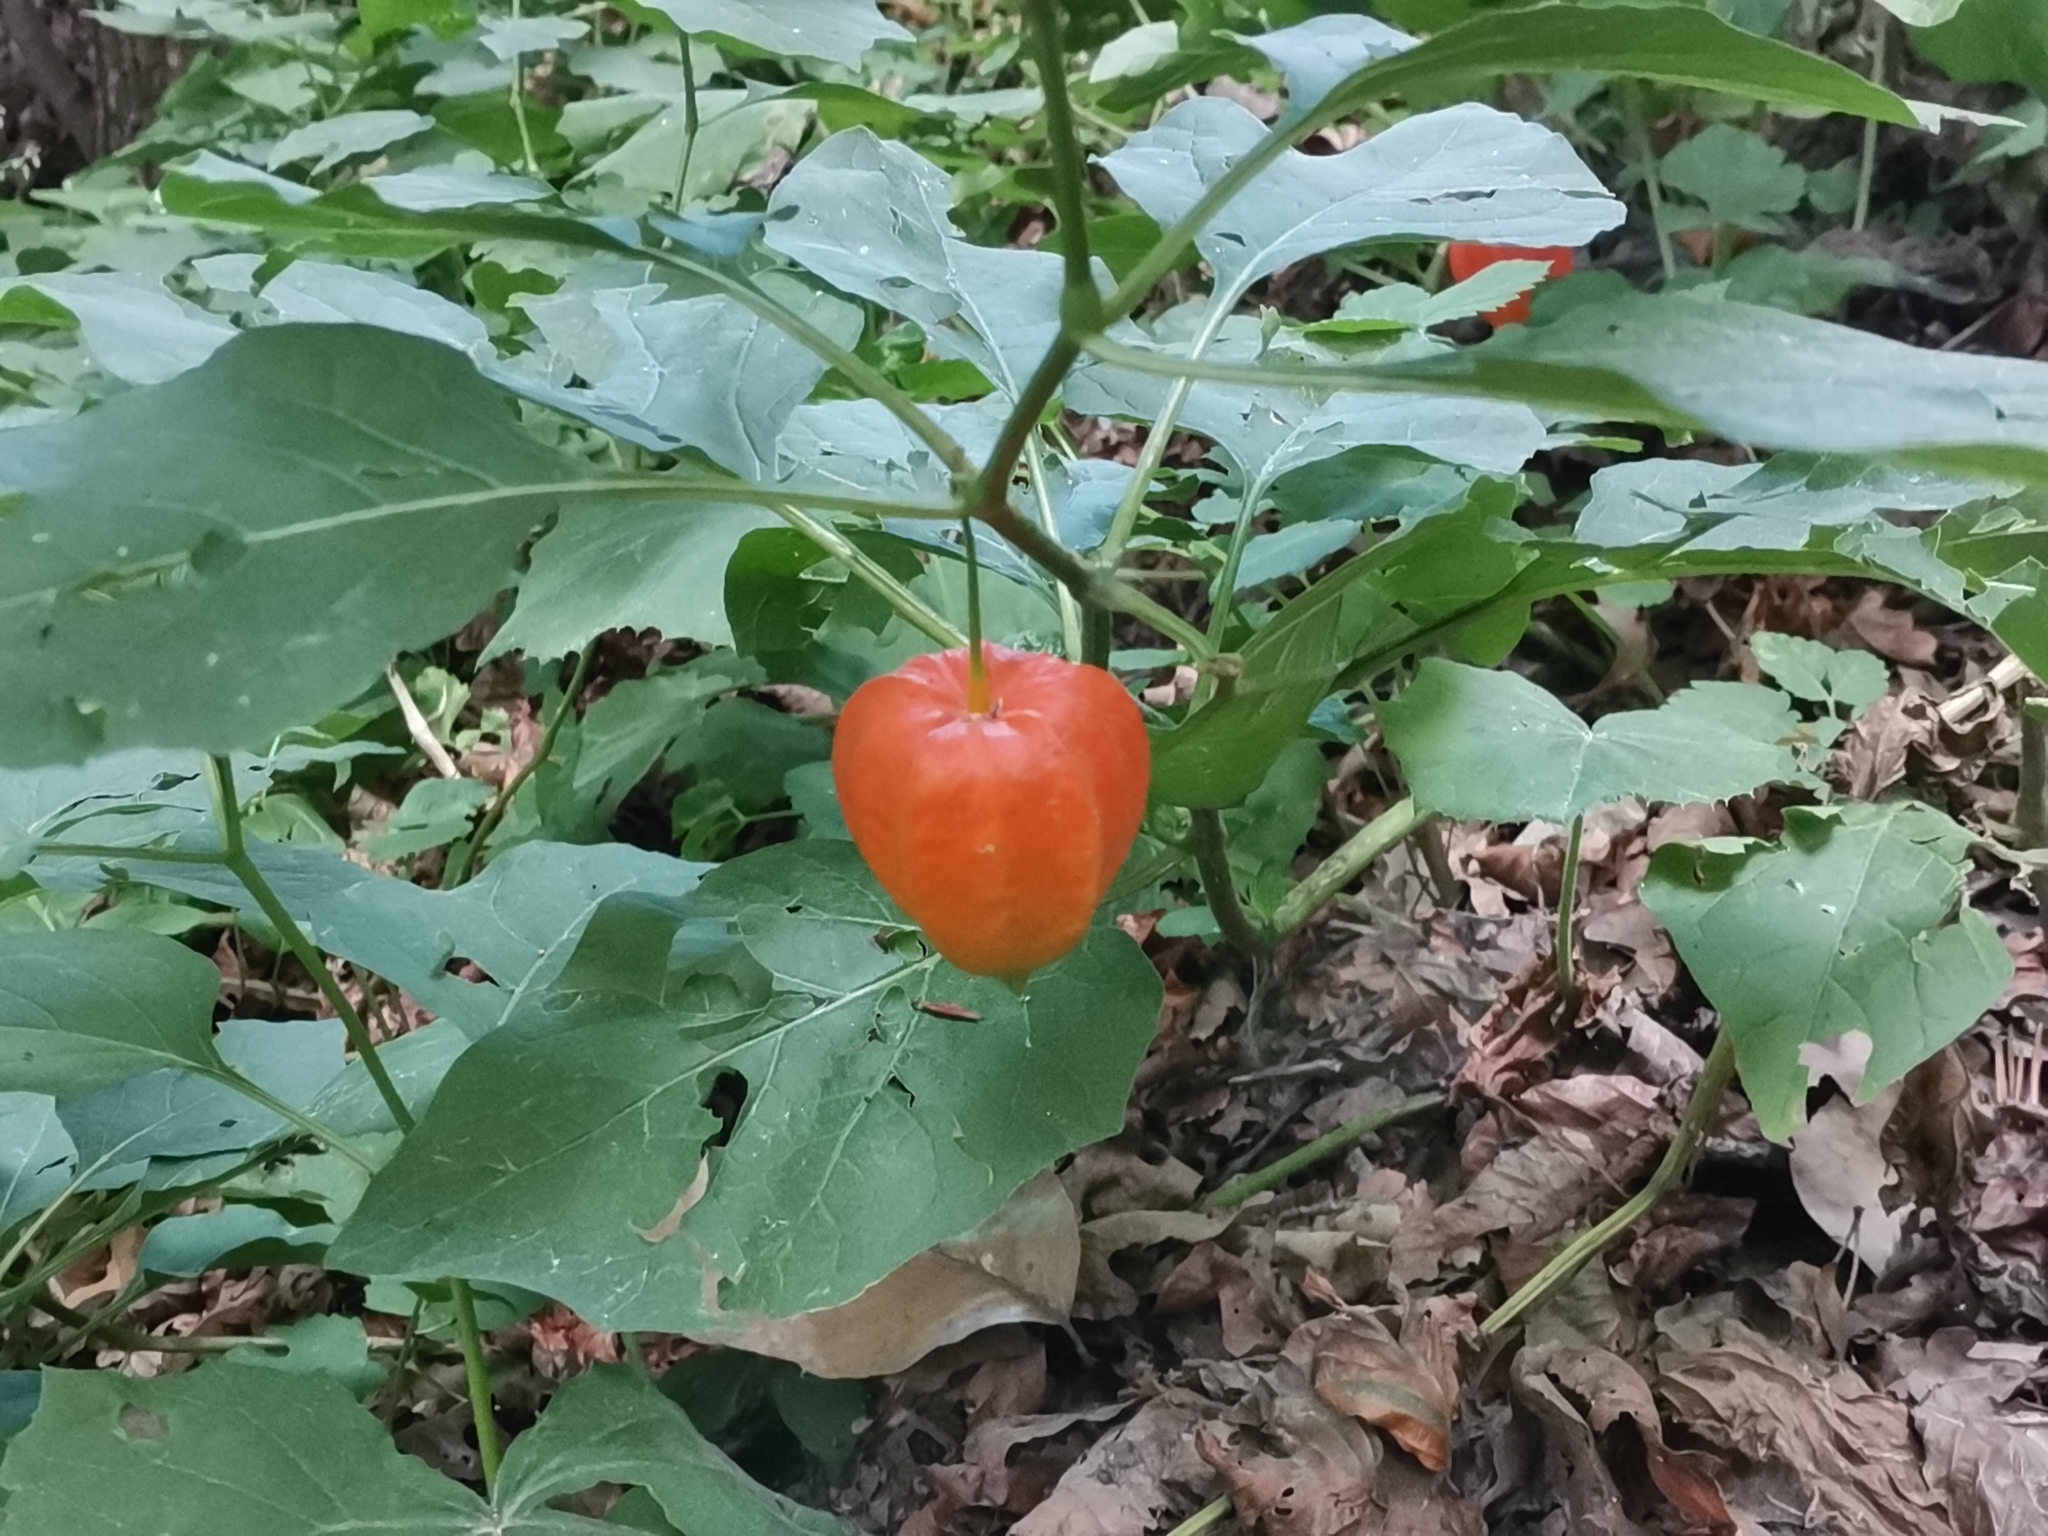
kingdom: Plantae
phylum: Tracheophyta
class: Magnoliopsida
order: Solanales
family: Solanaceae
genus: Alkekengi
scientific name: Alkekengi officinarum
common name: Japanese-lantern
